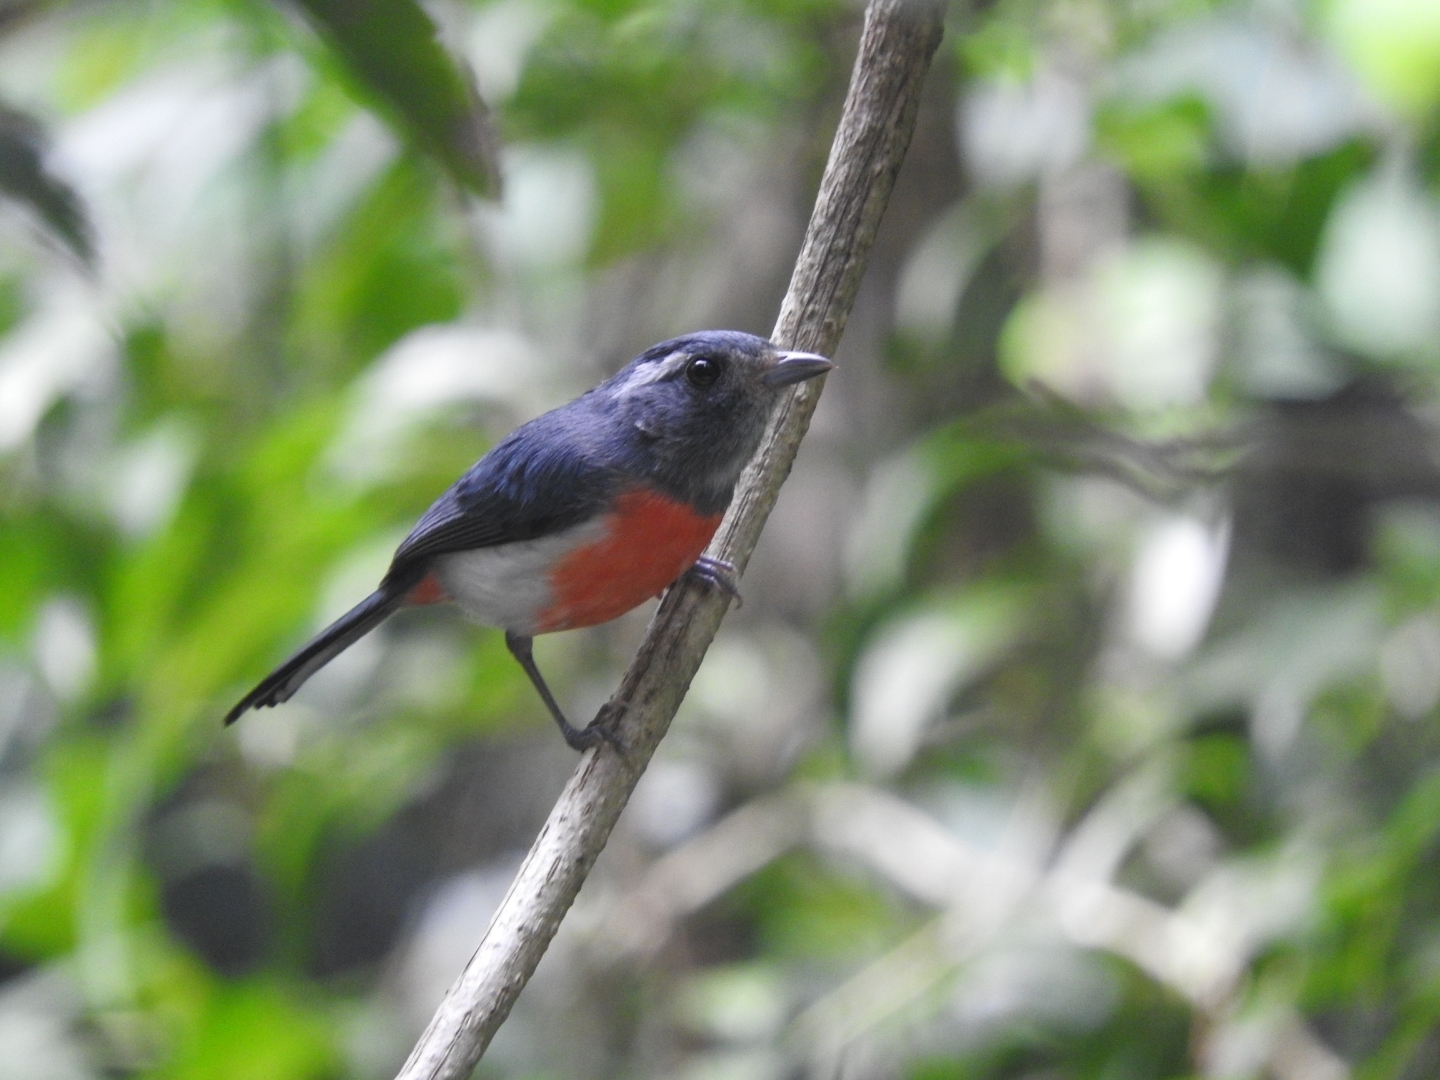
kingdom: Animalia
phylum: Chordata
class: Aves
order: Passeriformes
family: Cardinalidae
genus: Granatellus
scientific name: Granatellus sallaei
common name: Gray-throated chat
